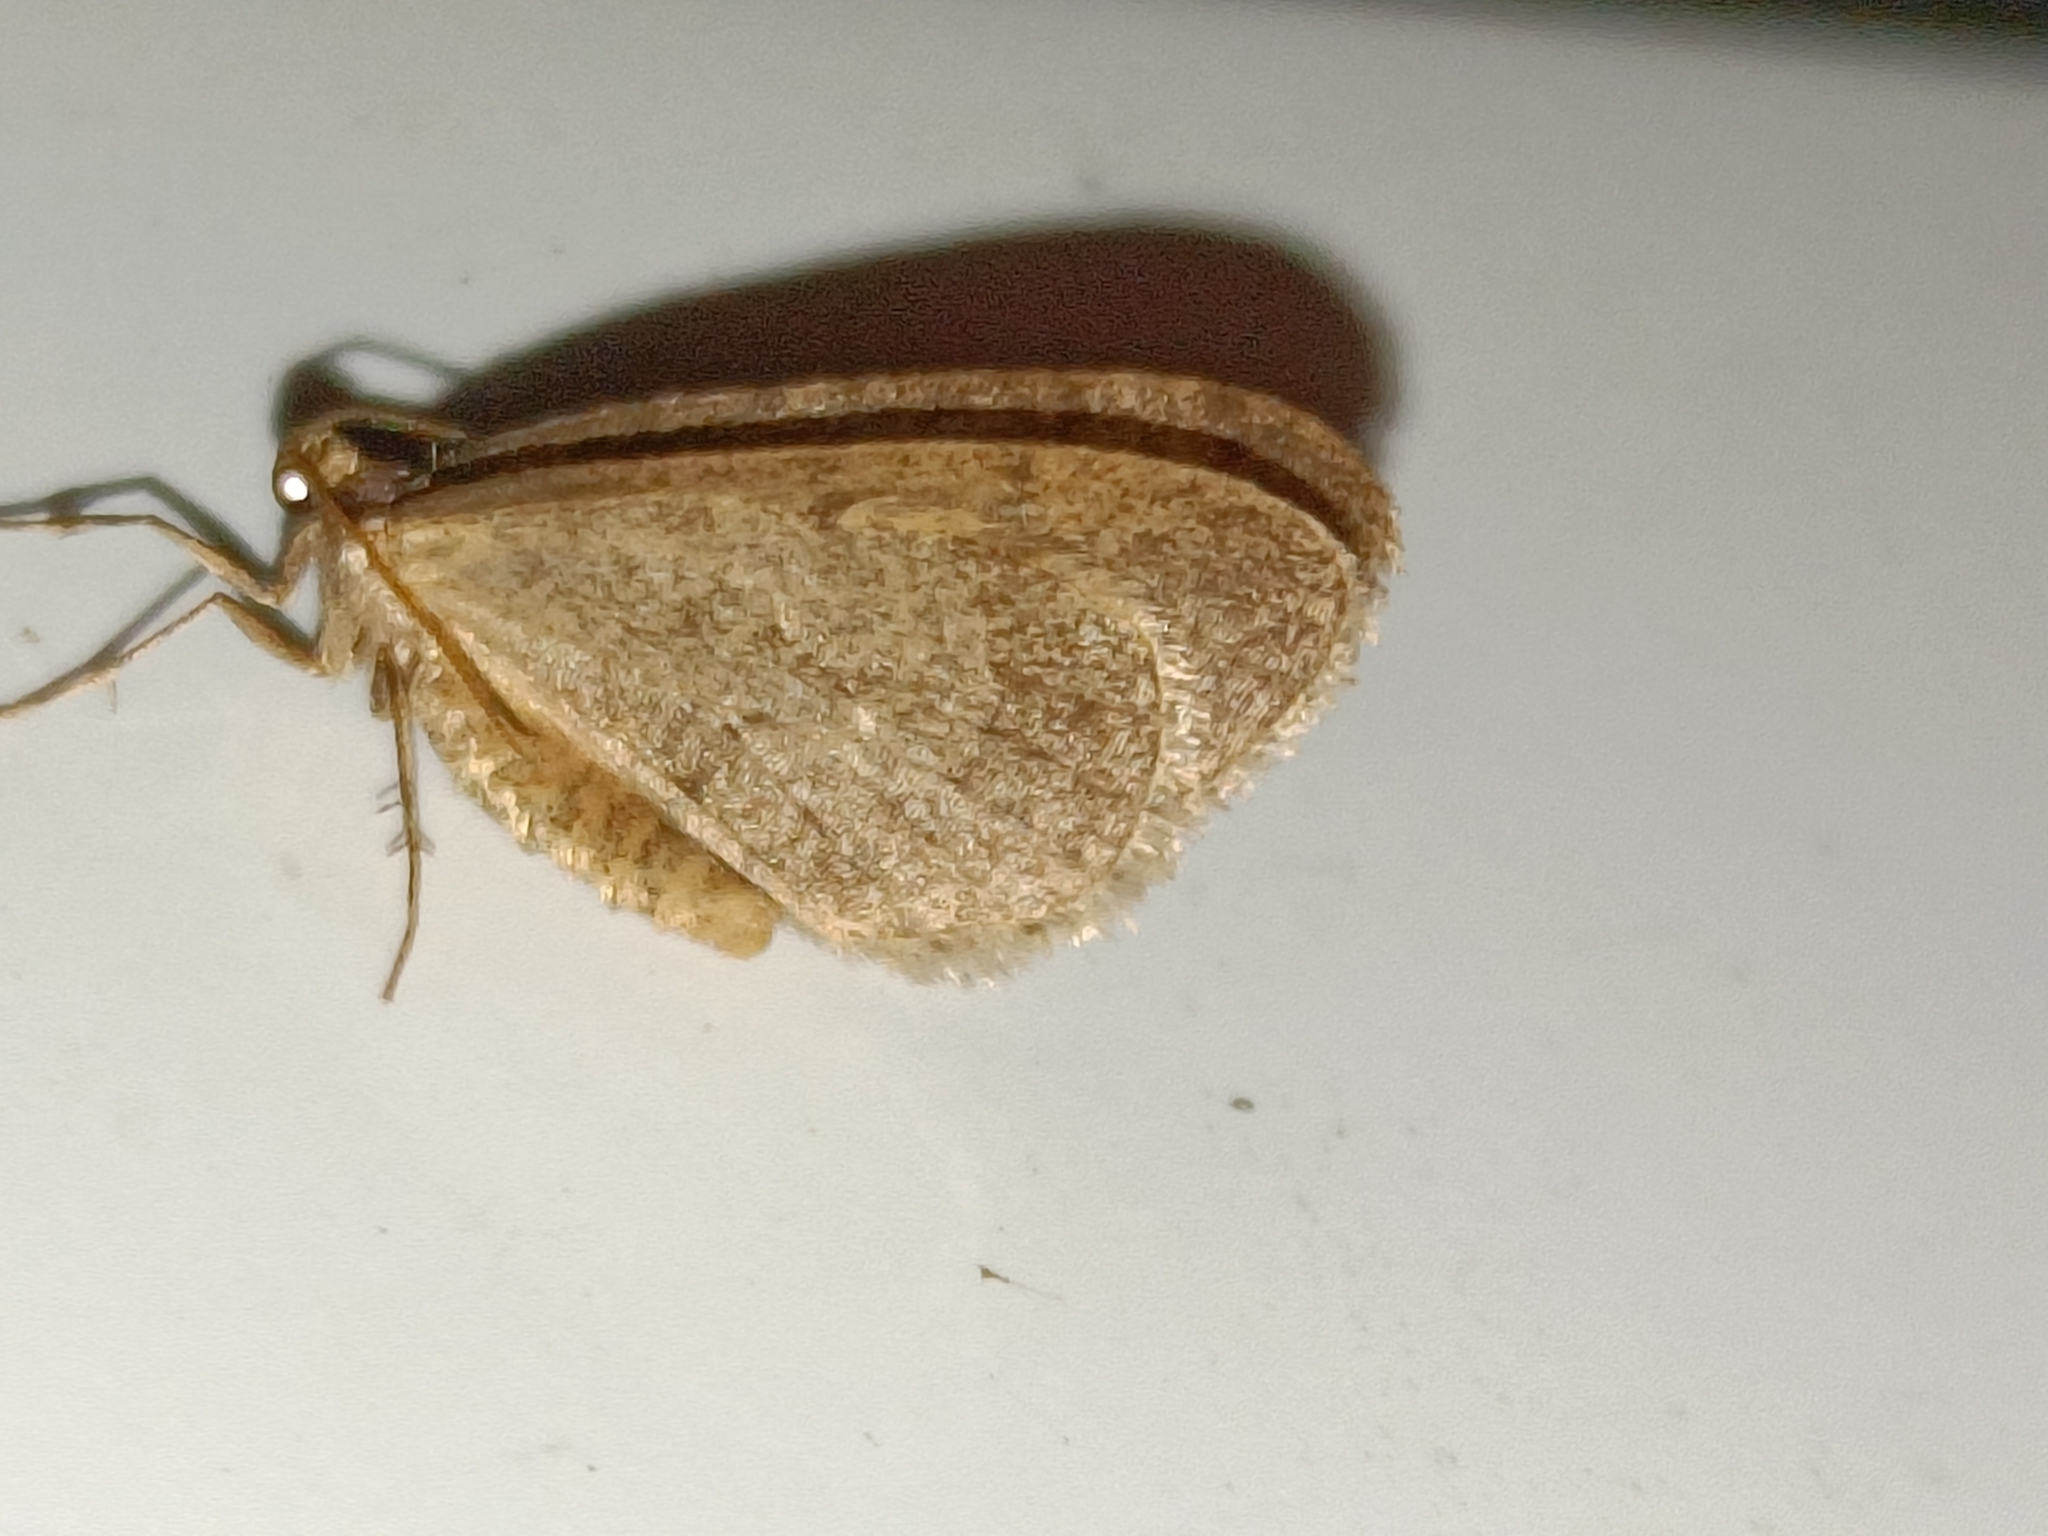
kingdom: Animalia
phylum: Arthropoda
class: Insecta
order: Lepidoptera
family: Geometridae
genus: Operophtera
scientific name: Operophtera brumata
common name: Winter moth
